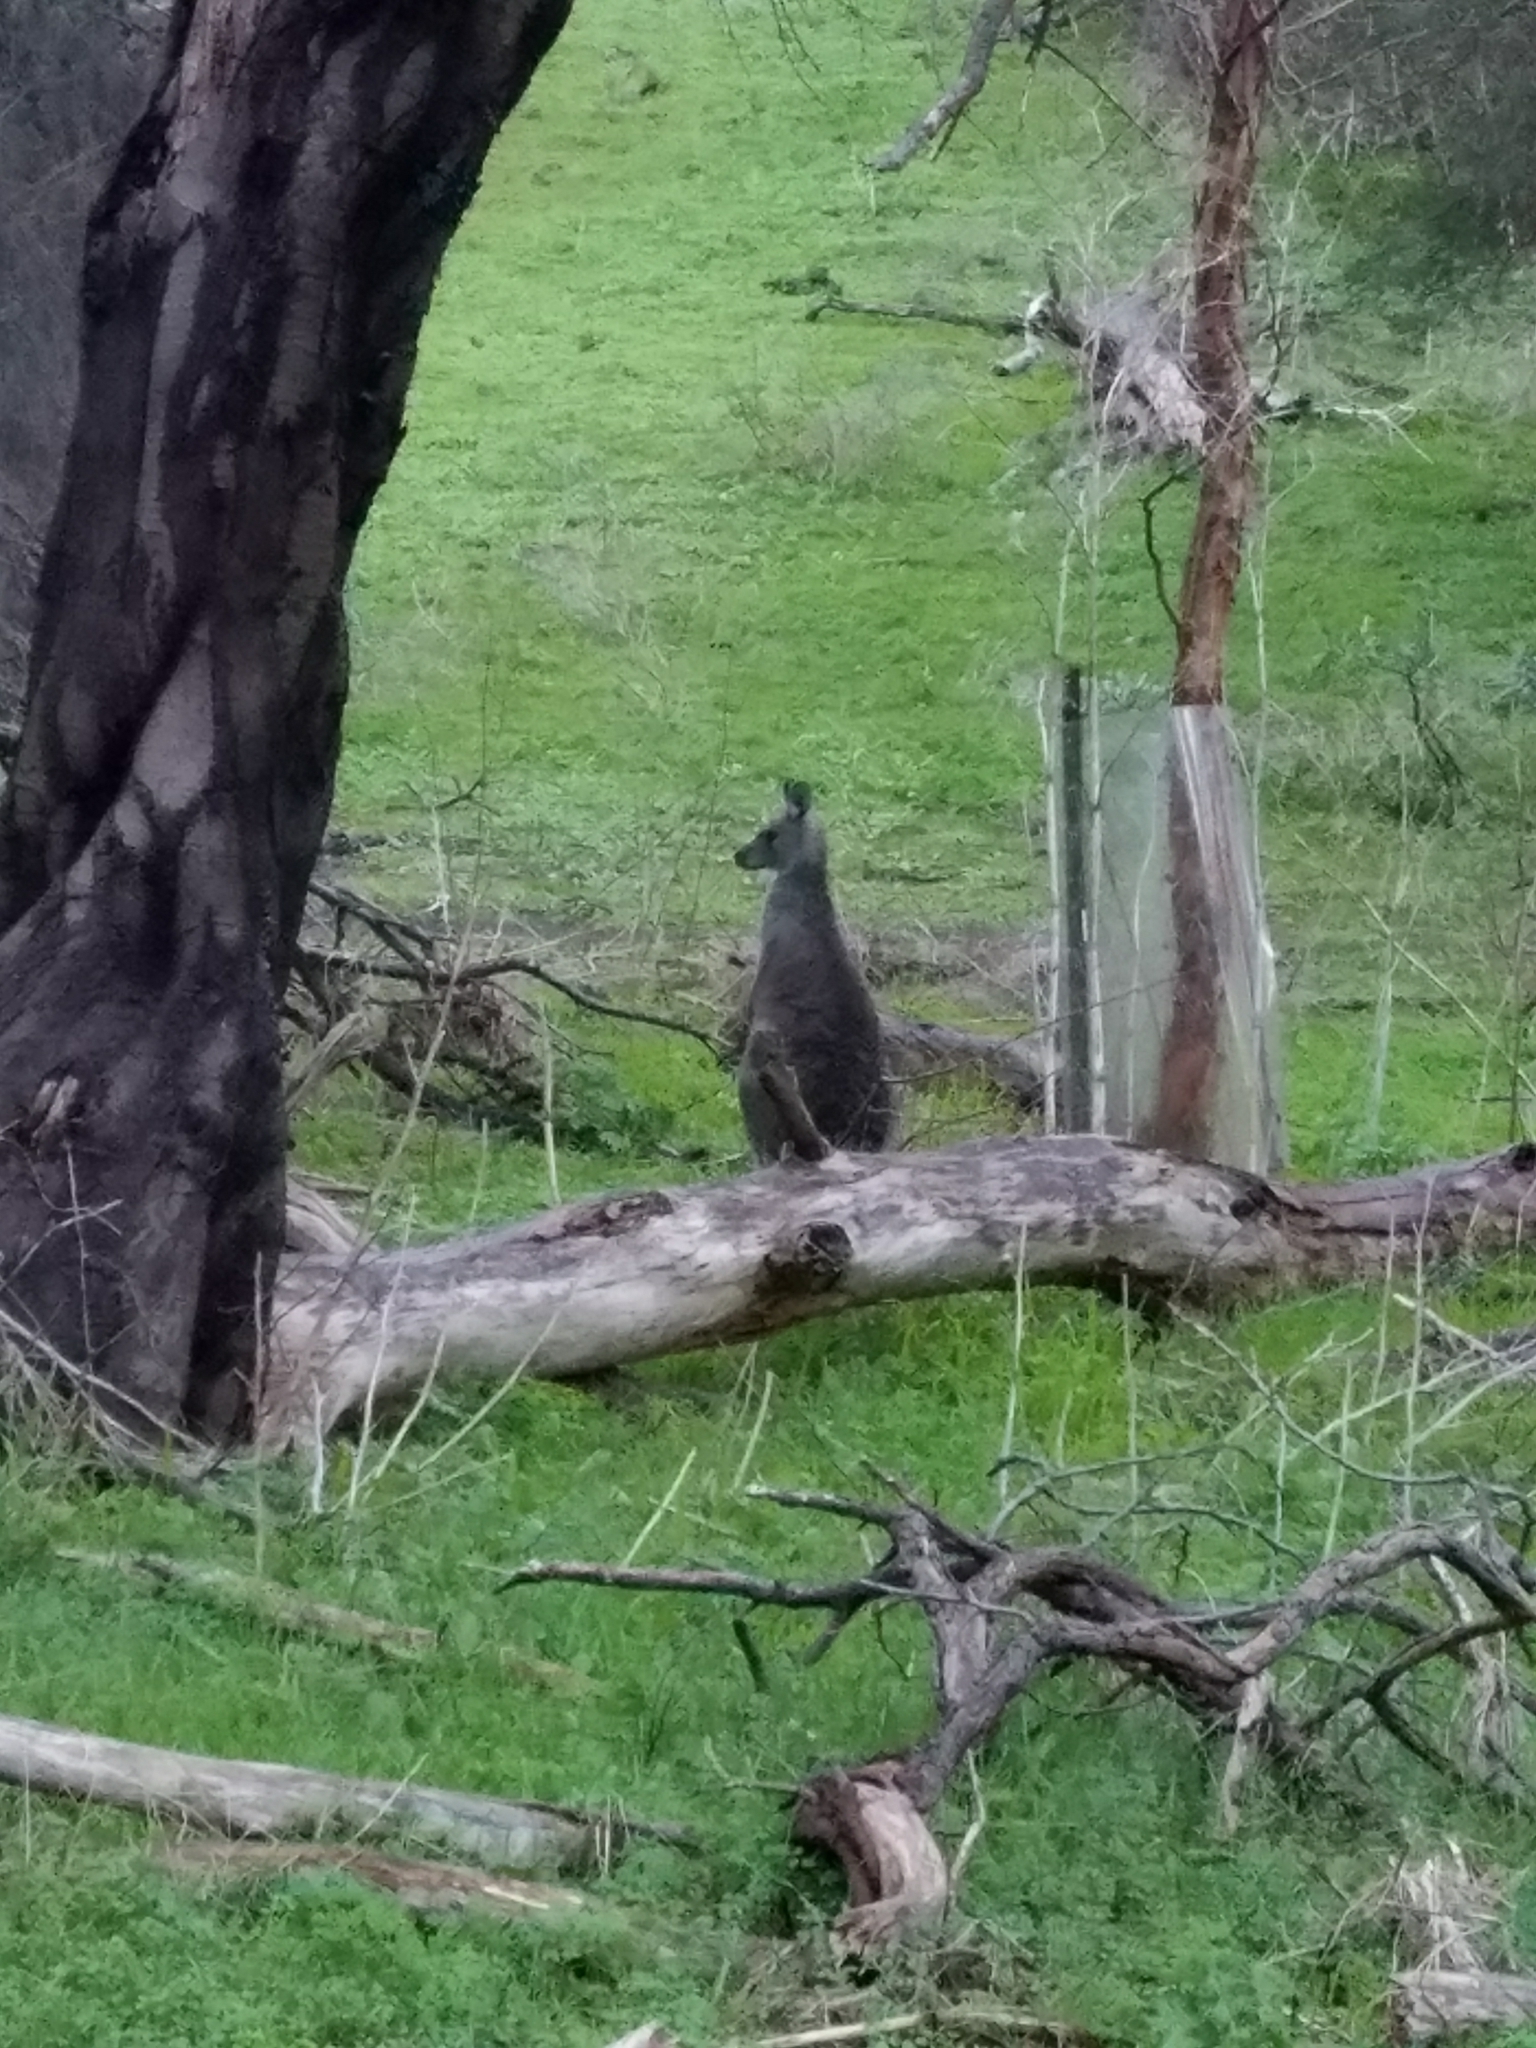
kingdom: Animalia
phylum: Chordata
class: Mammalia
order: Diprotodontia
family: Macropodidae
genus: Macropus
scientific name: Macropus giganteus
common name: Eastern grey kangaroo
